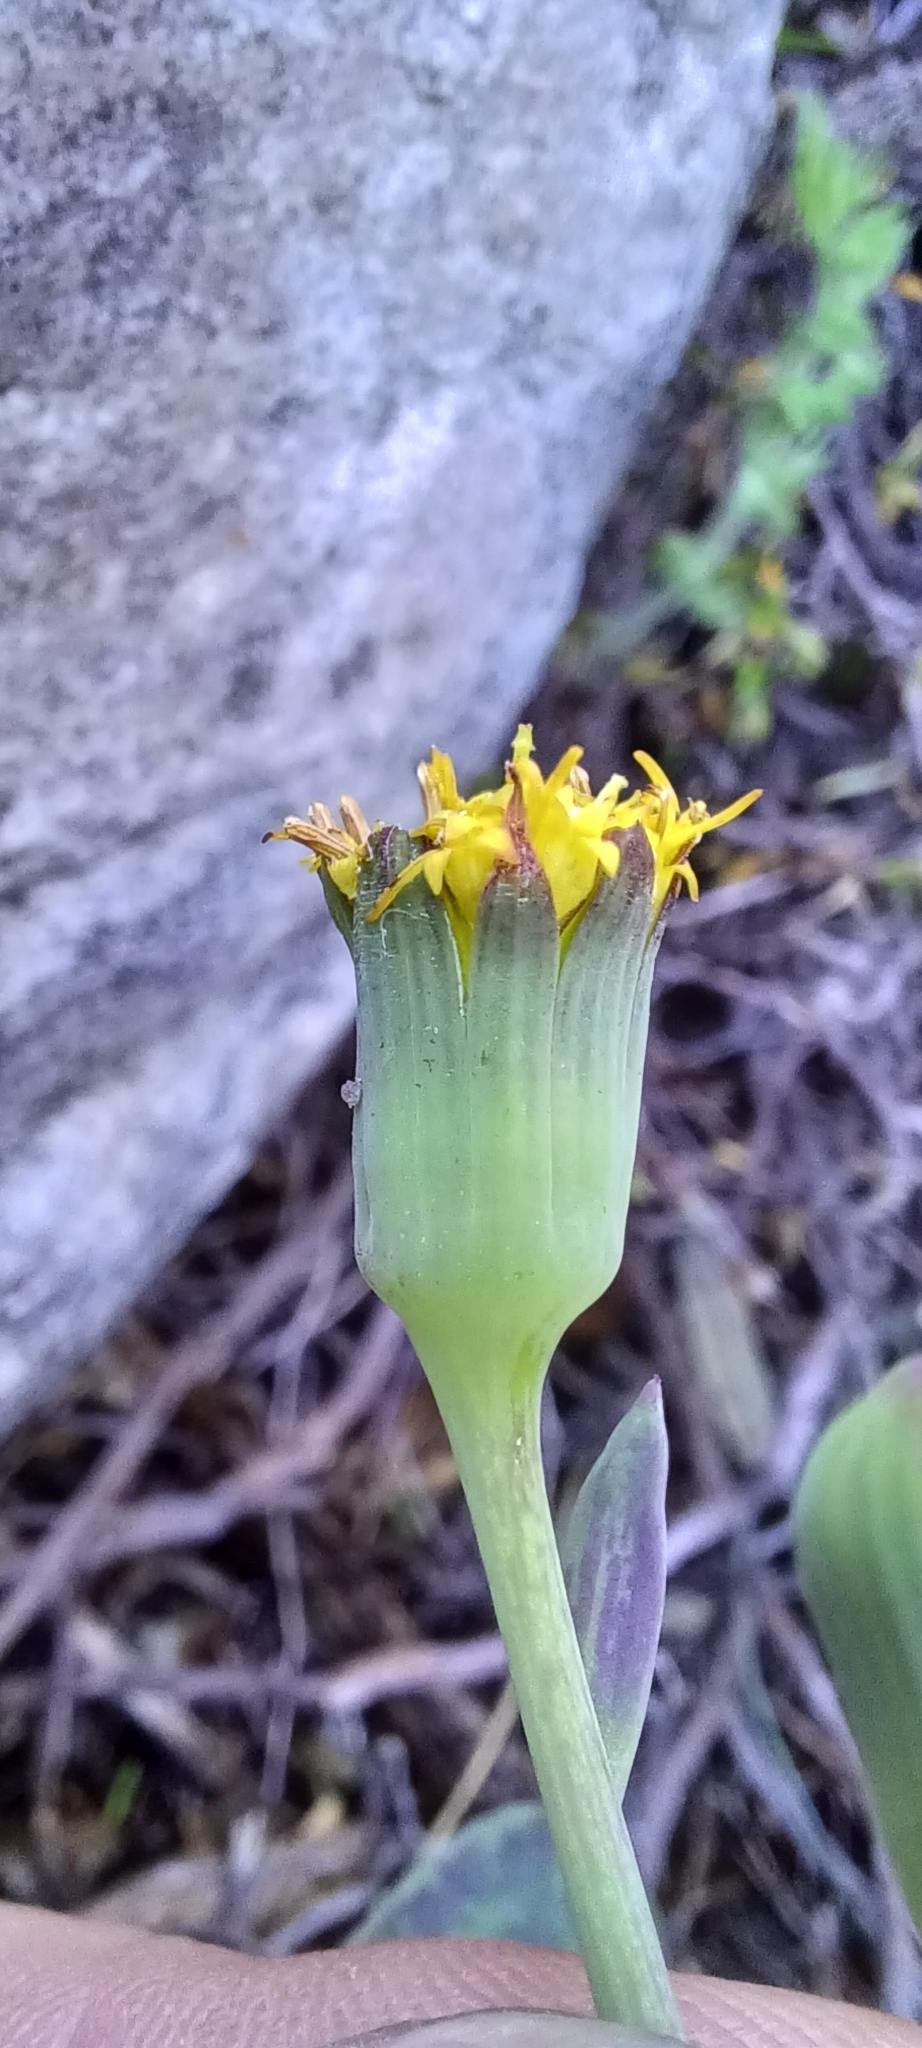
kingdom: Plantae
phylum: Tracheophyta
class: Magnoliopsida
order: Asterales
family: Asteraceae
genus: Othonna
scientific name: Othonna gymnodiscus
